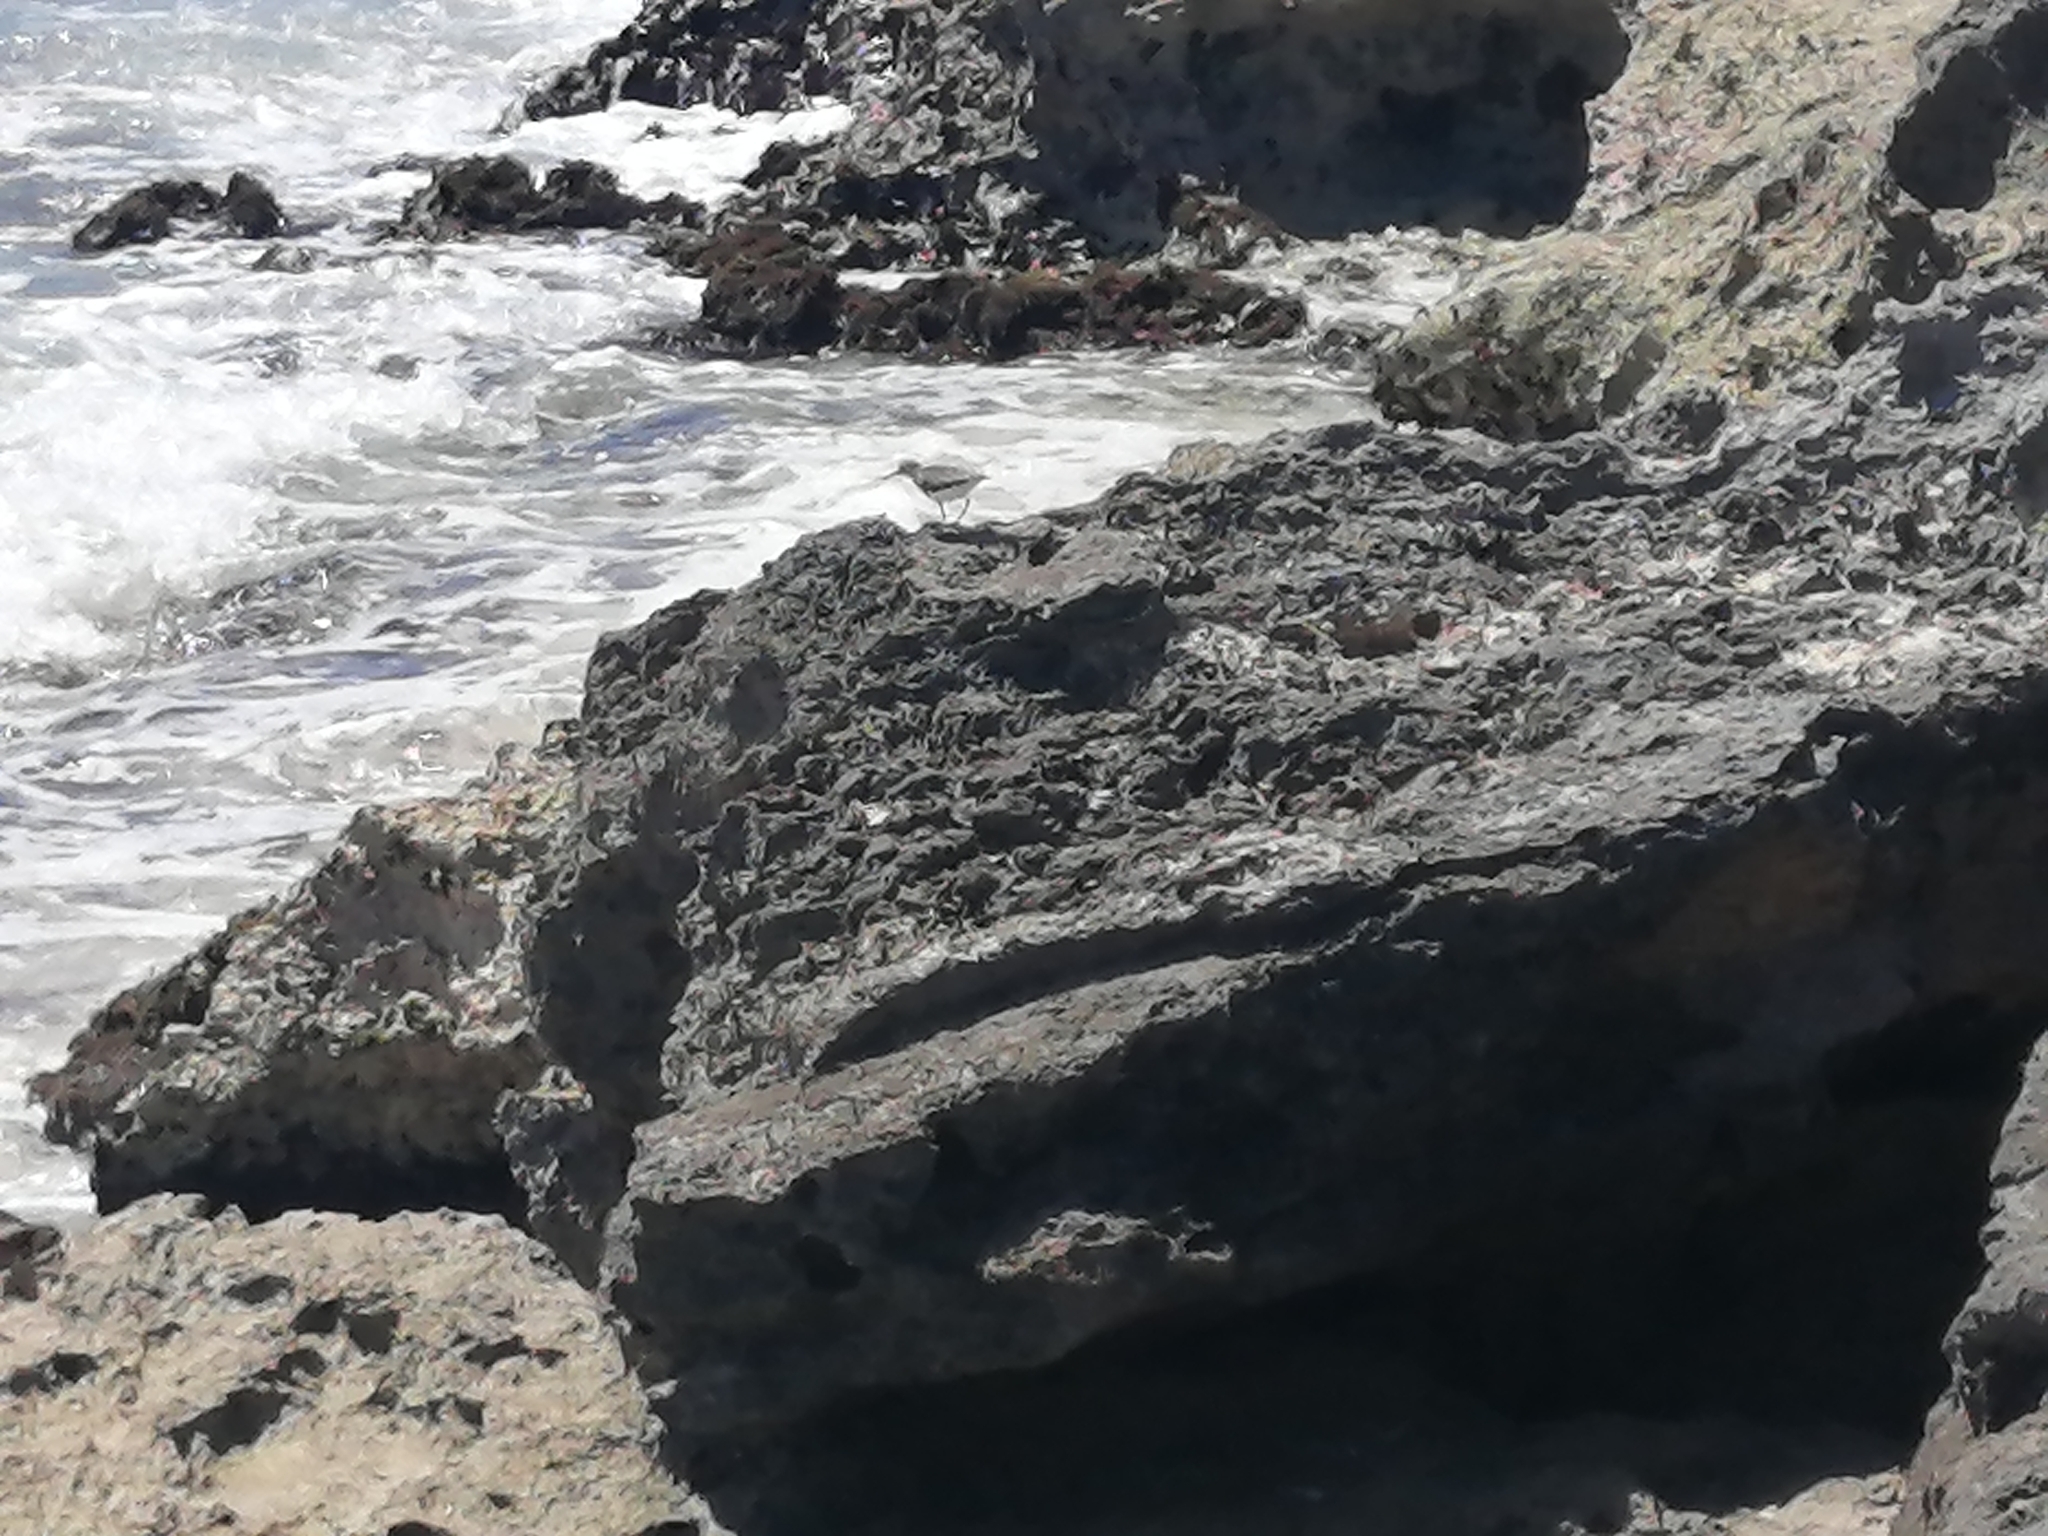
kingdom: Animalia
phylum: Chordata
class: Aves
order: Charadriiformes
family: Scolopacidae
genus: Actitis
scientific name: Actitis macularius
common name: Spotted sandpiper
